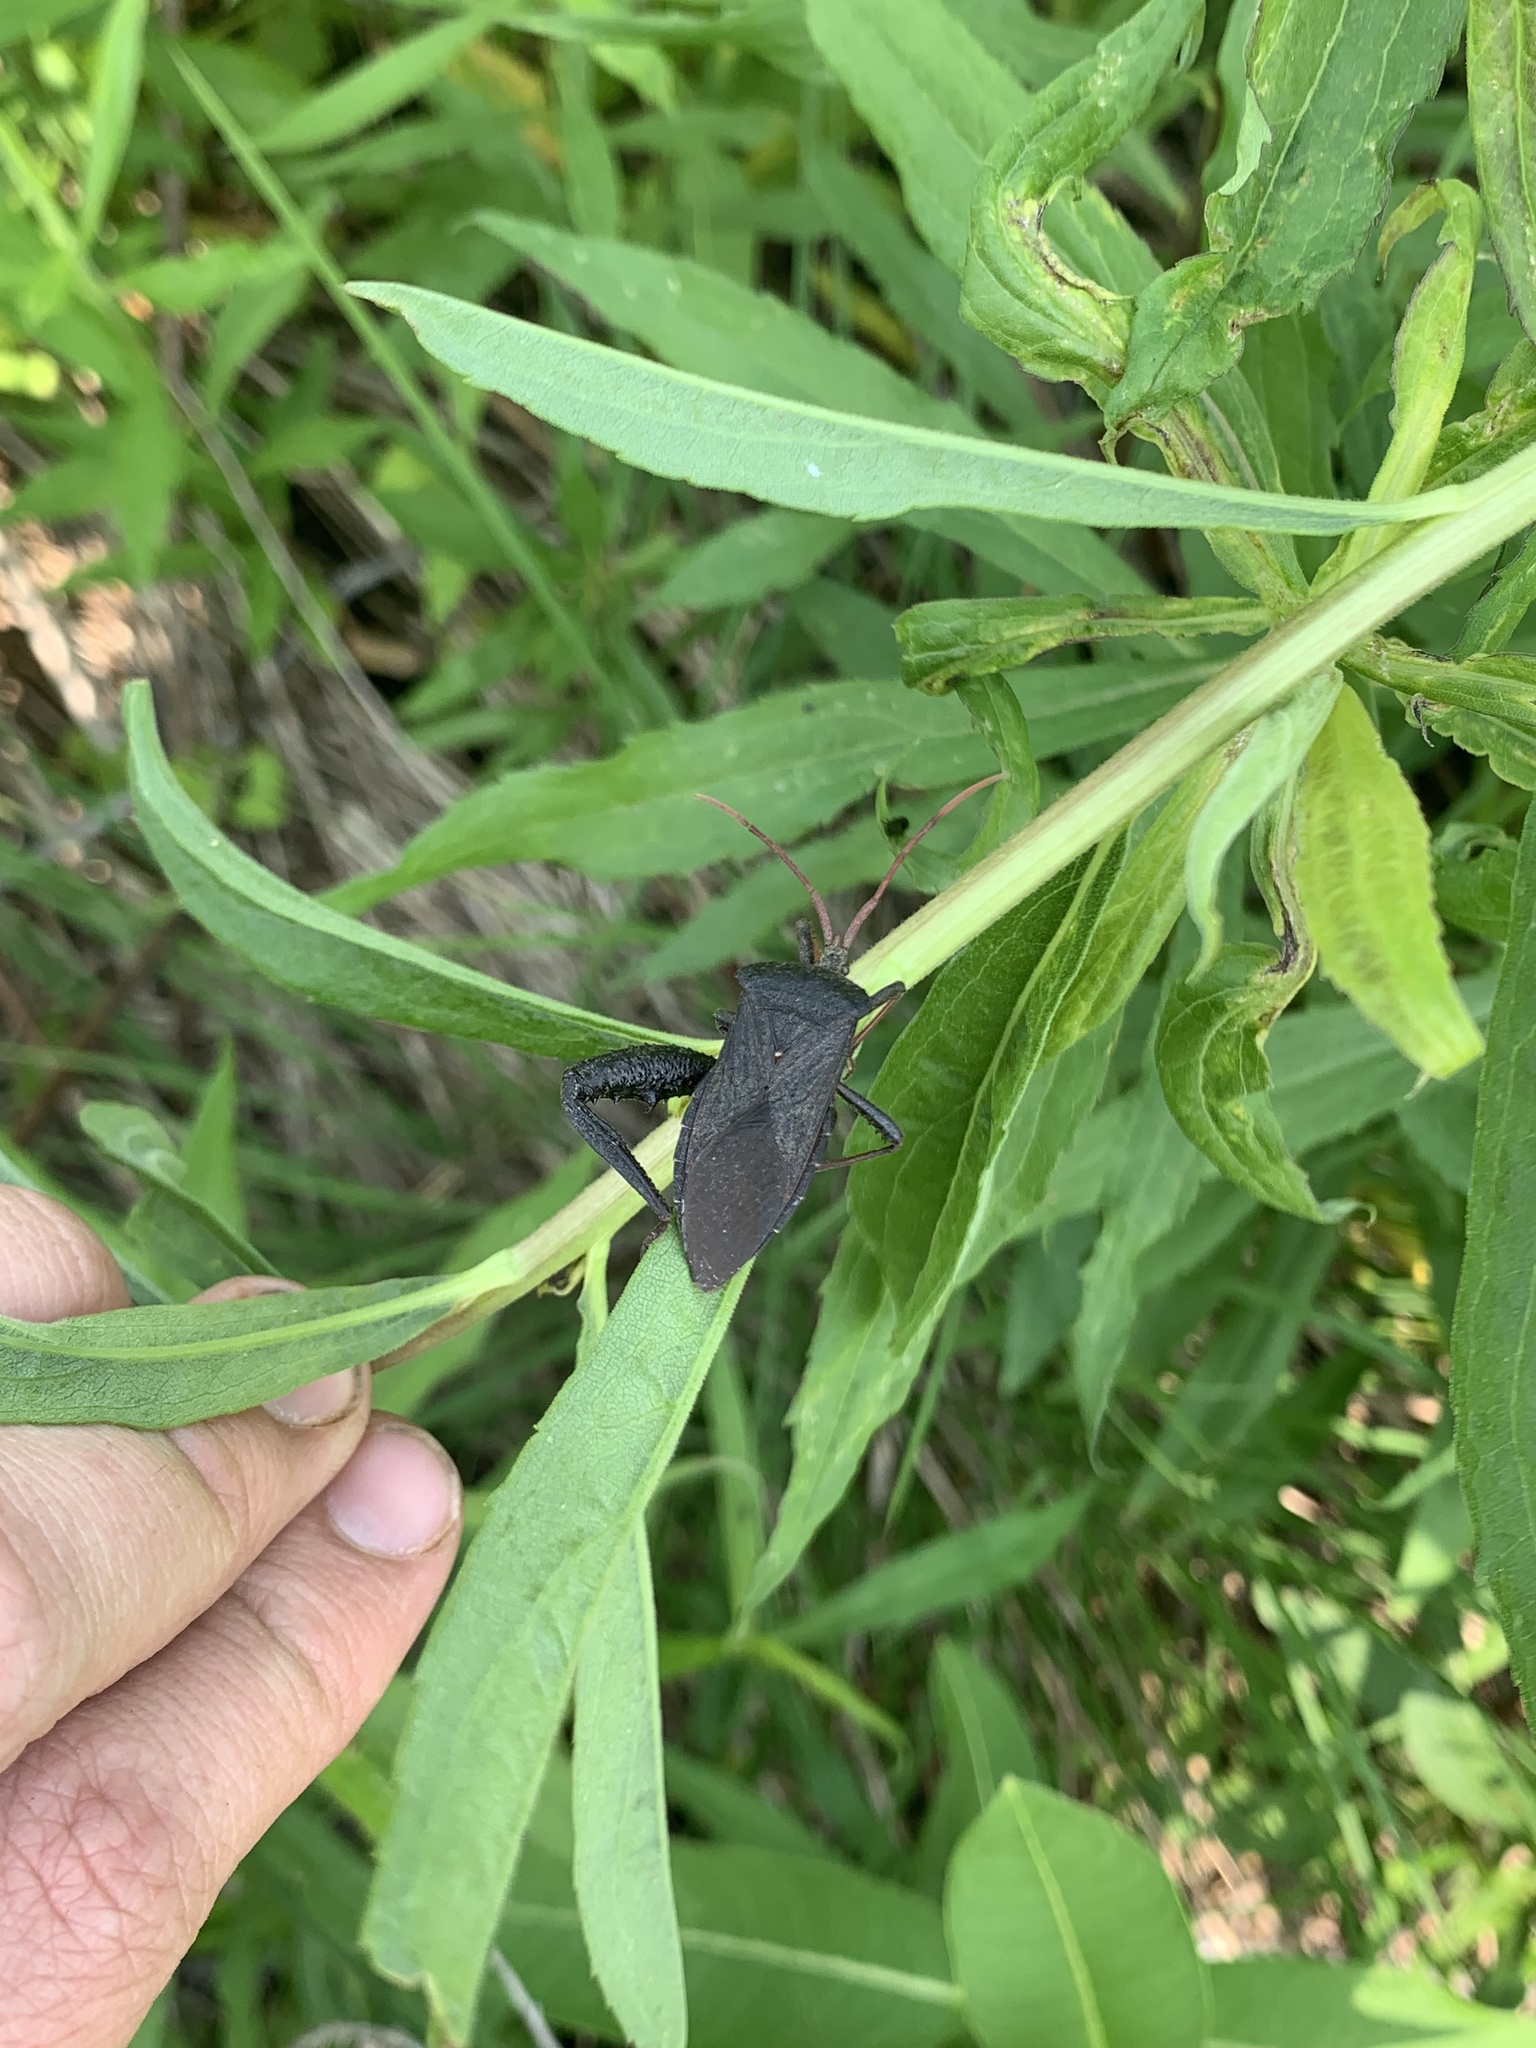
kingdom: Animalia
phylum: Arthropoda
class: Insecta
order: Hemiptera
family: Coreidae
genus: Acanthocephala
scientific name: Acanthocephala femorata
